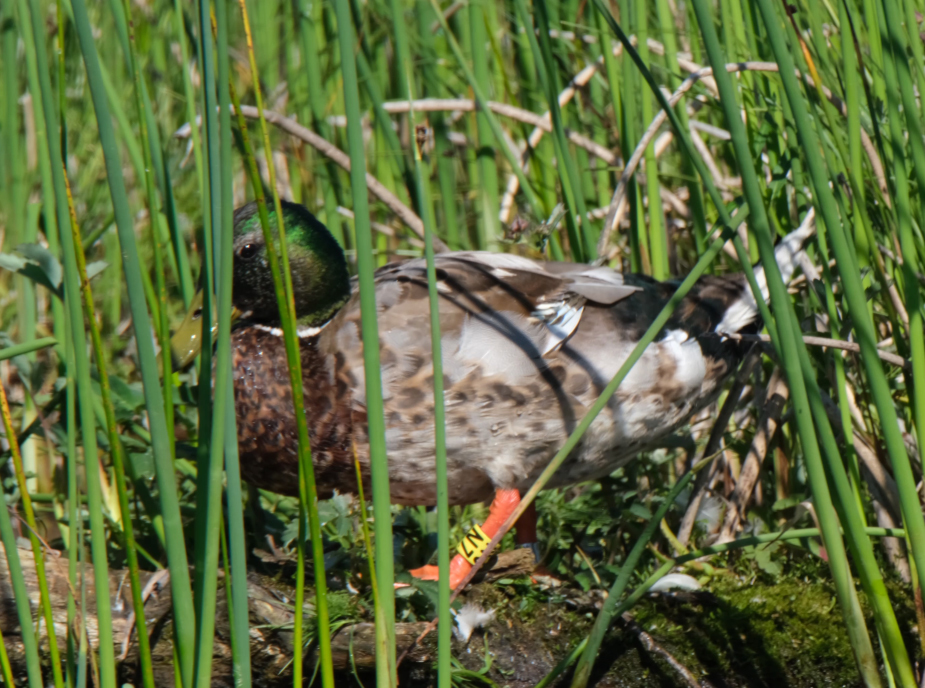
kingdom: Animalia
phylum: Chordata
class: Aves
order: Anseriformes
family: Anatidae
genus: Anas
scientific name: Anas platyrhynchos
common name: Mallard
